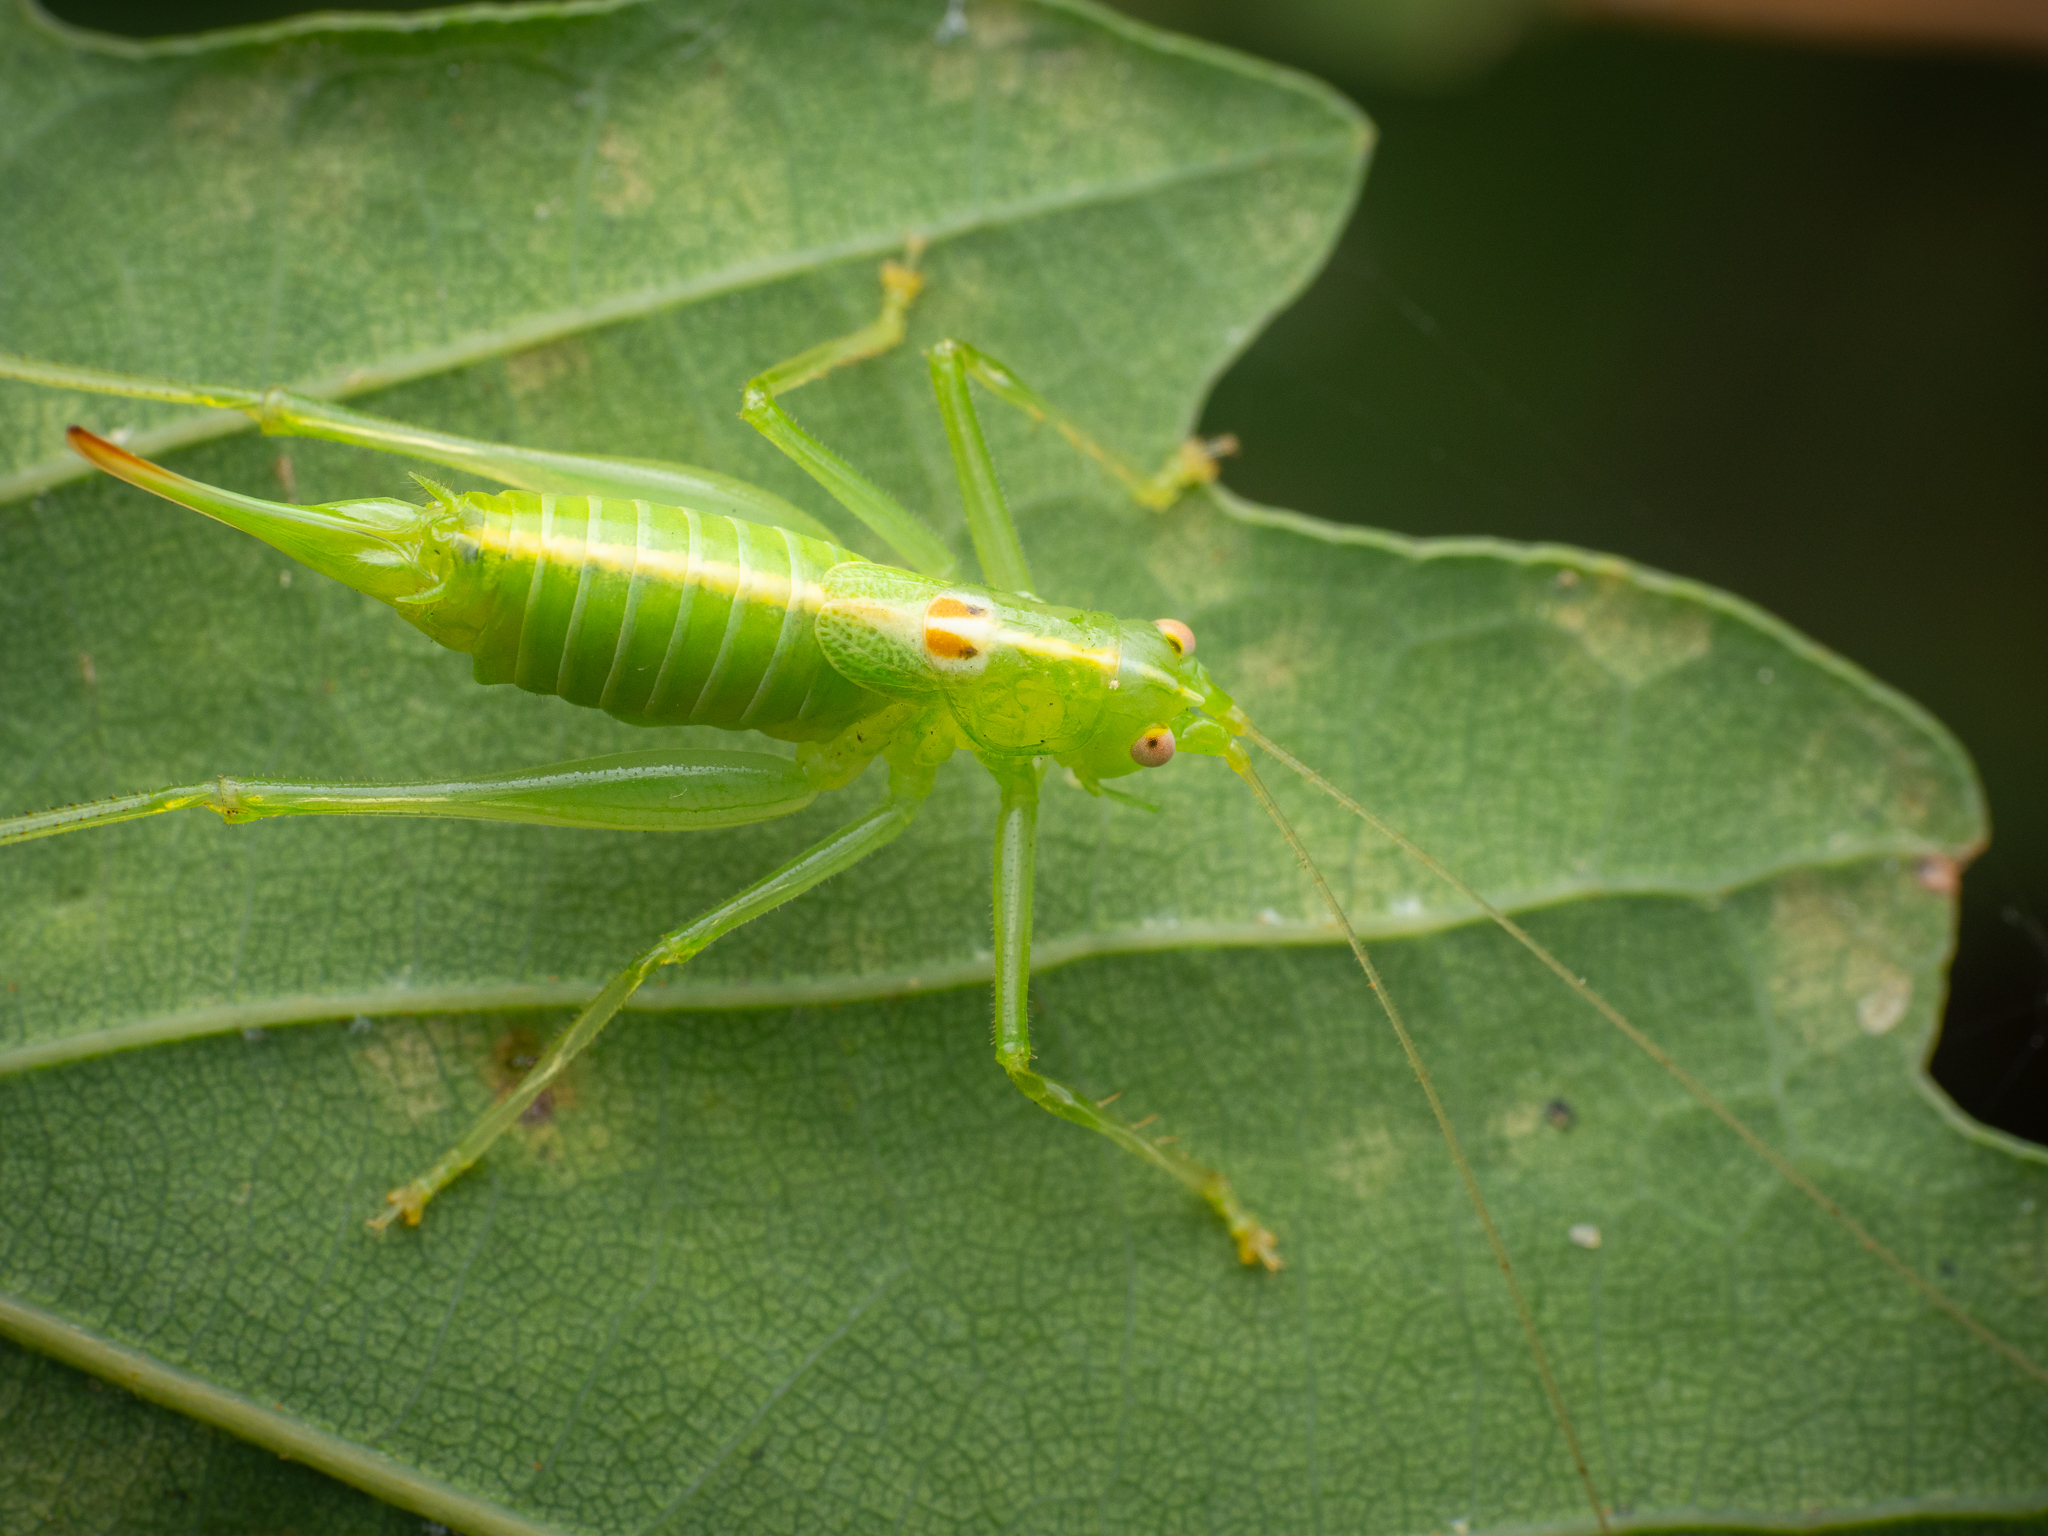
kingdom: Animalia
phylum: Arthropoda
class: Insecta
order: Orthoptera
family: Tettigoniidae
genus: Meconema
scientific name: Meconema meridionale
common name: Southern oak bush-cricket
